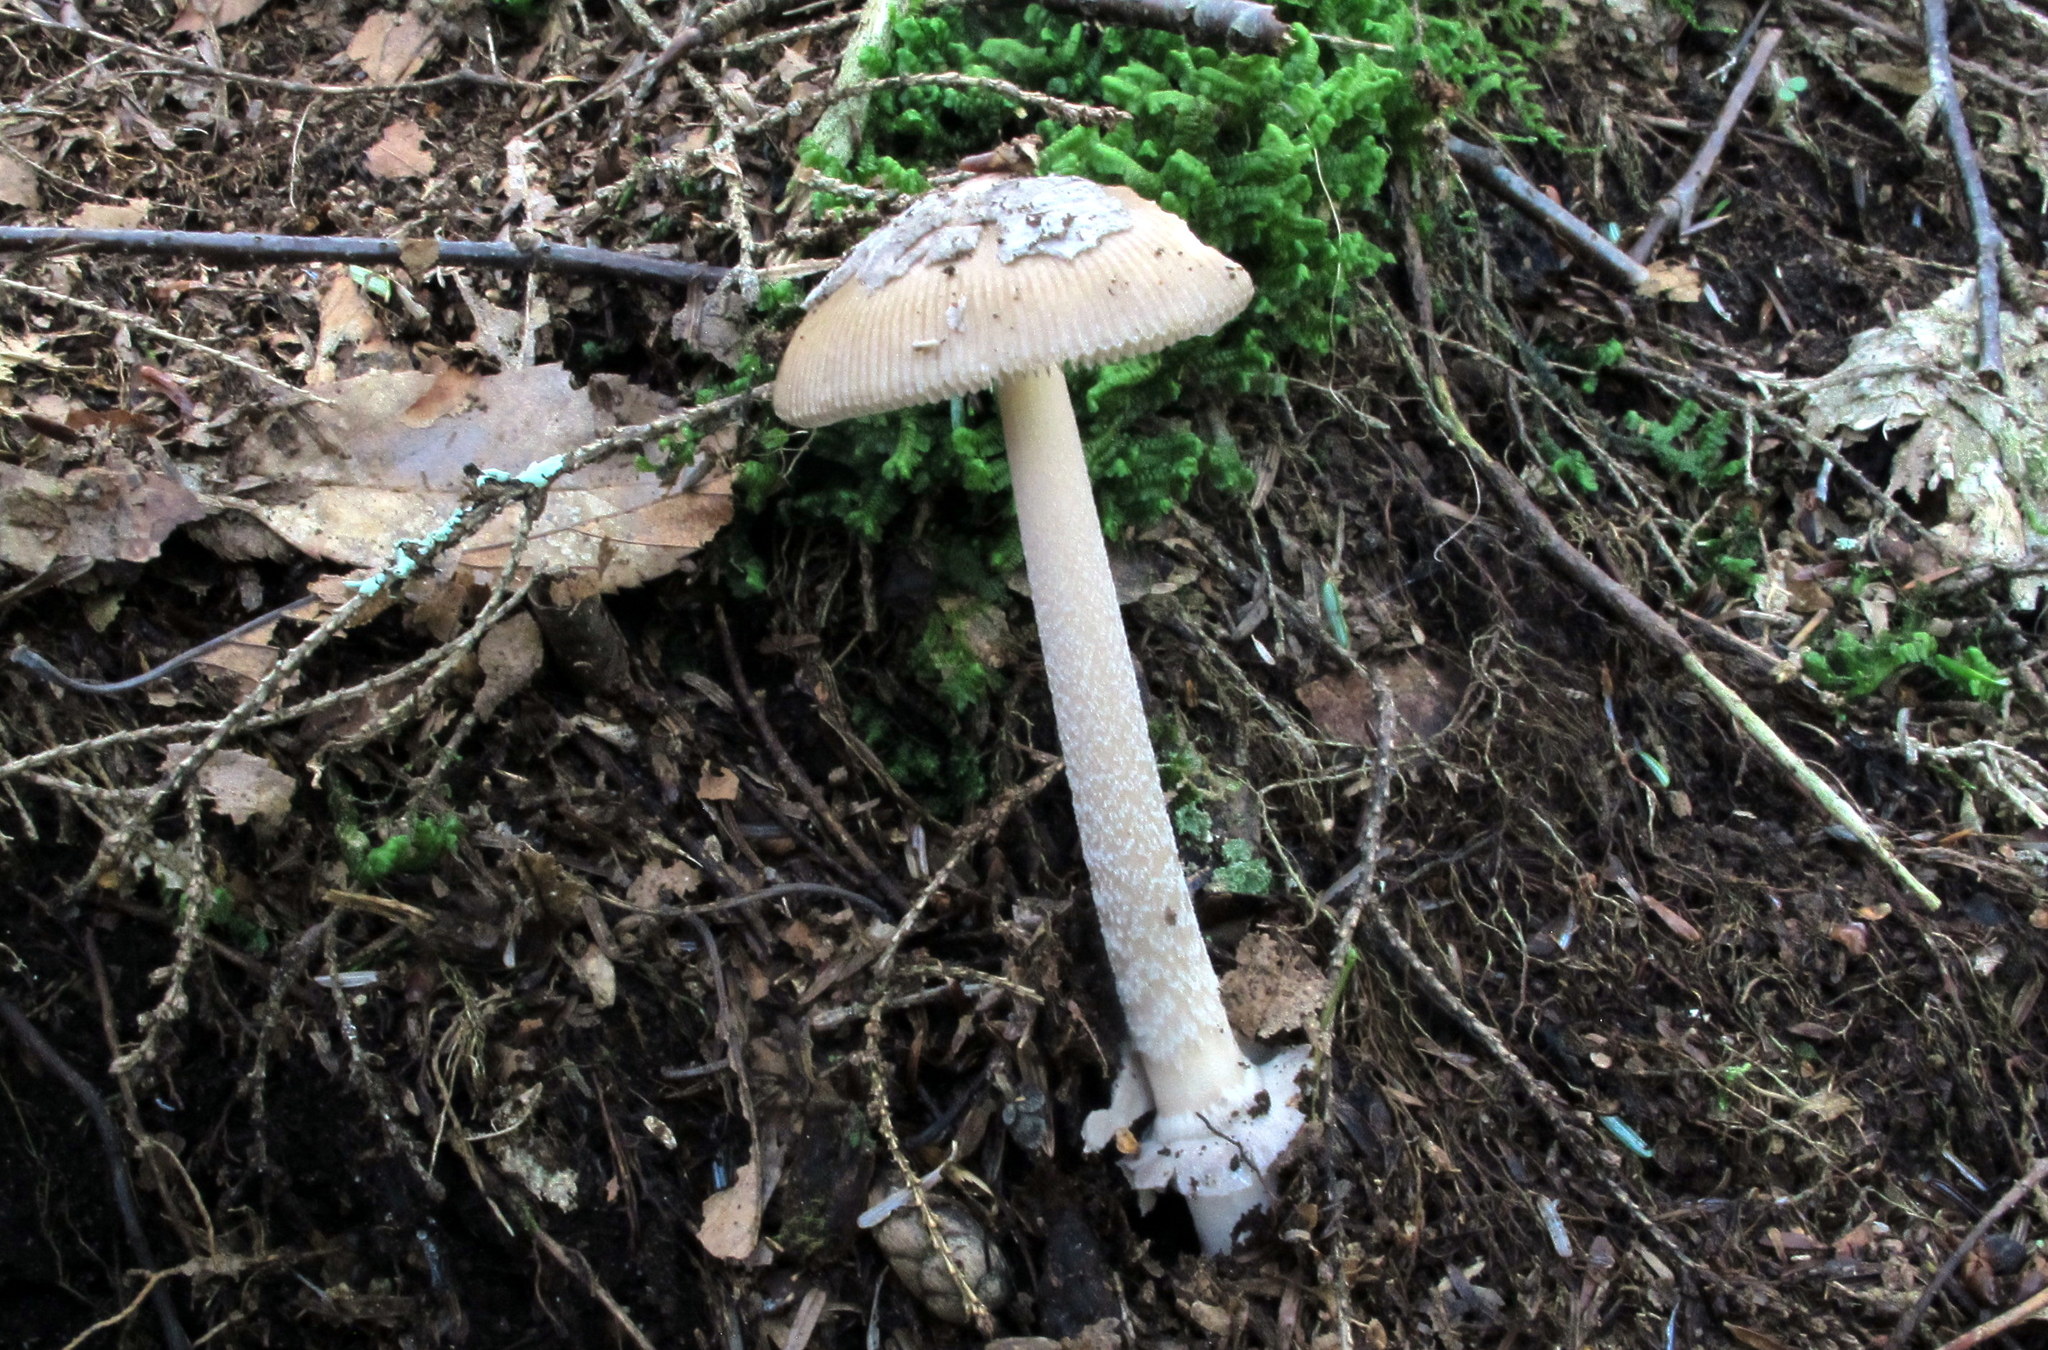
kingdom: Fungi
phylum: Basidiomycota
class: Agaricomycetes
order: Agaricales
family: Amanitaceae
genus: Amanita
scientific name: Amanita rhacopus
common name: Shaggy legged ringless amanita
